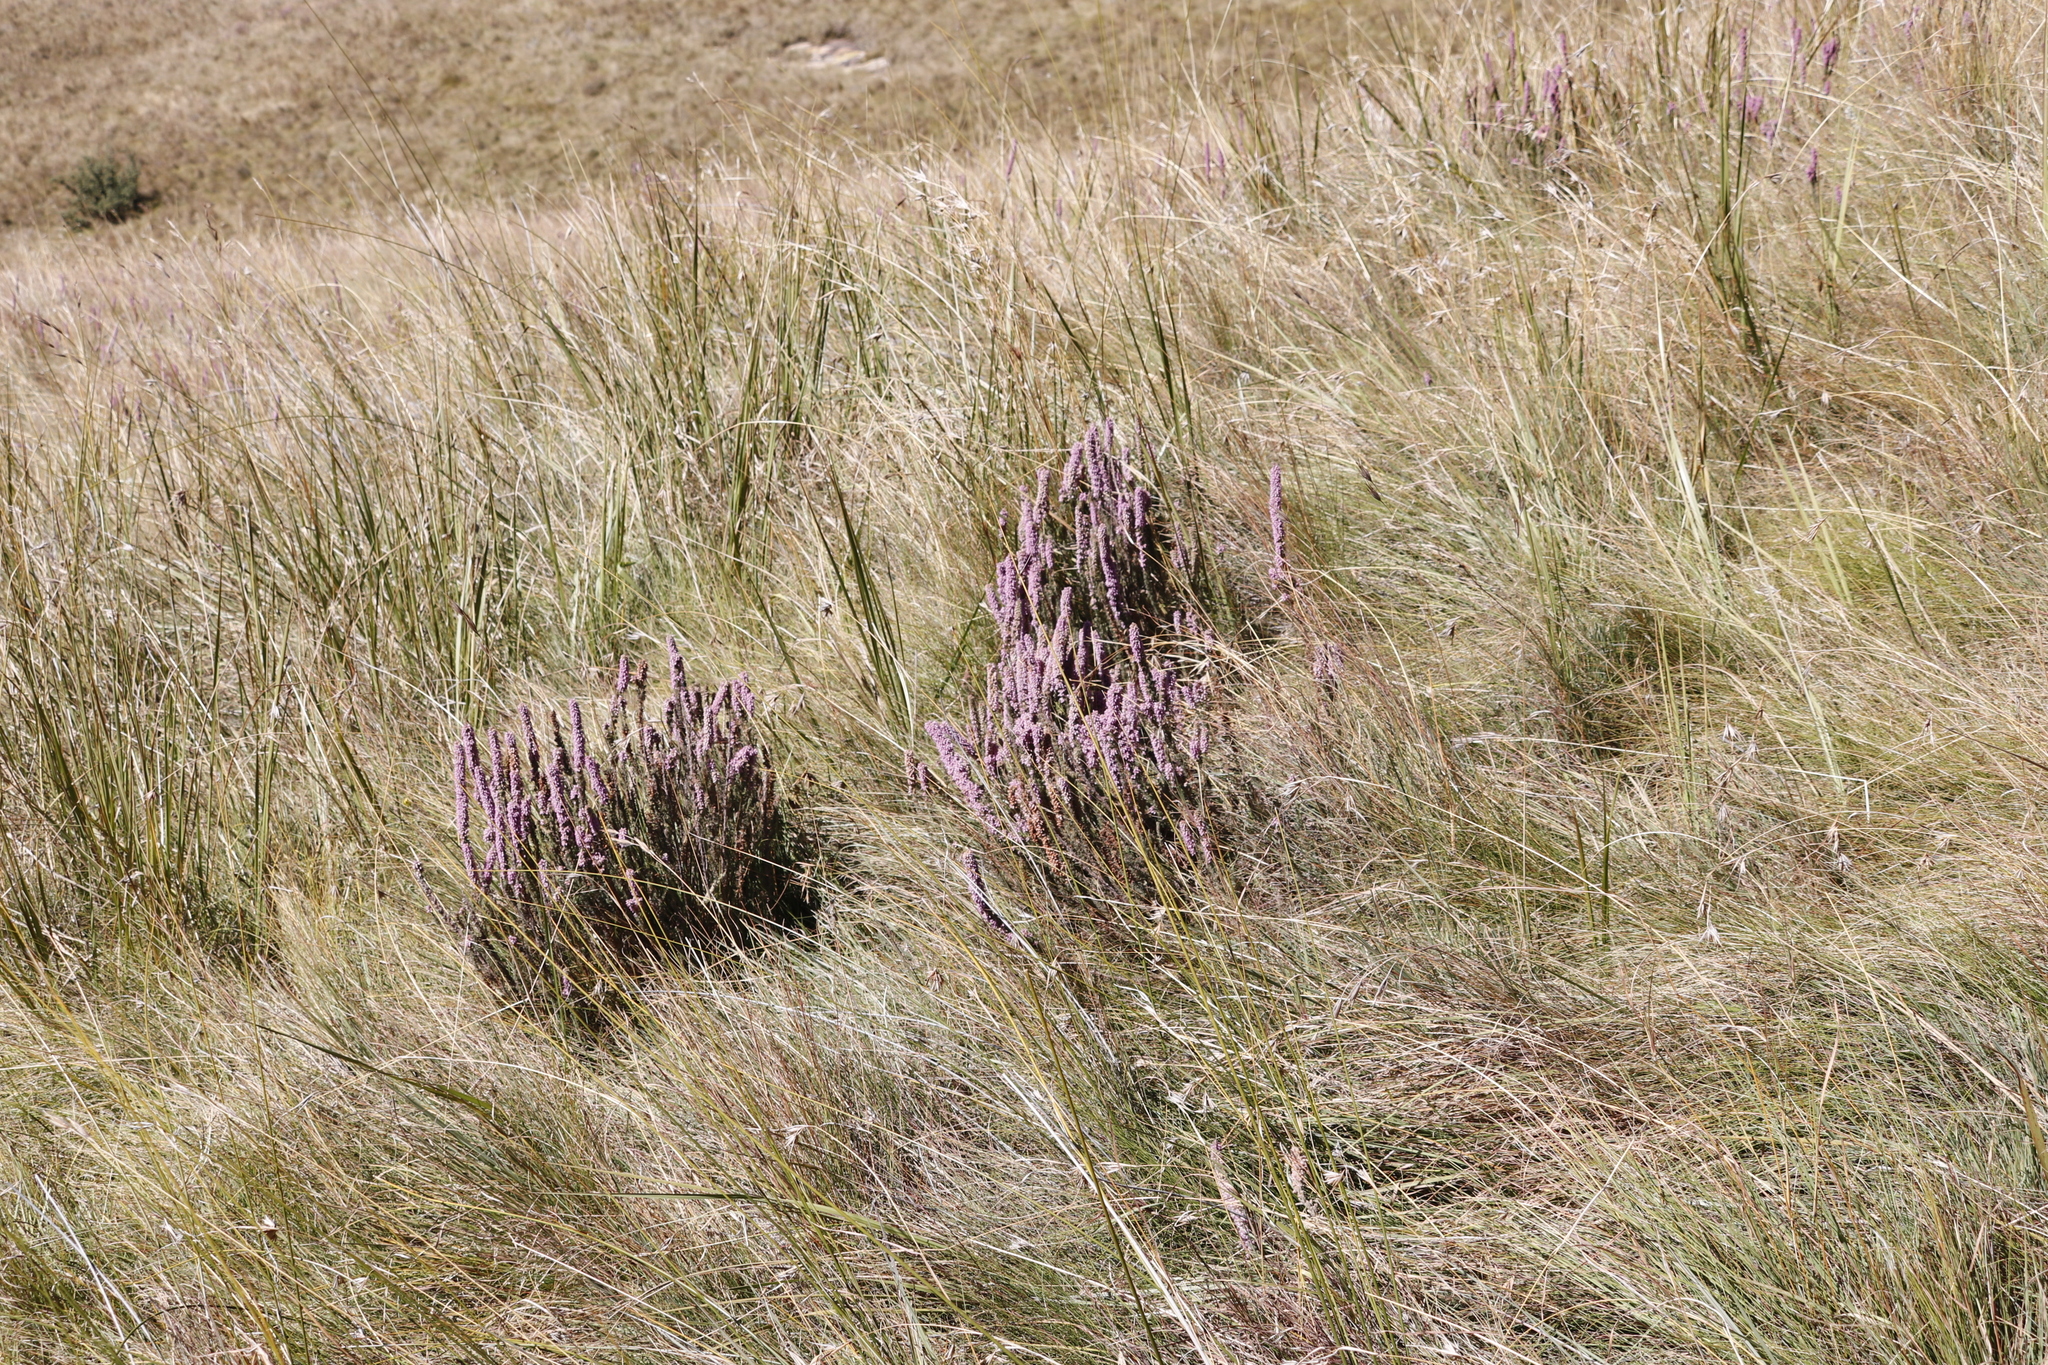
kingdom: Plantae
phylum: Tracheophyta
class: Magnoliopsida
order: Ericales
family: Ericaceae
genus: Erica
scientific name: Erica alopecurus
